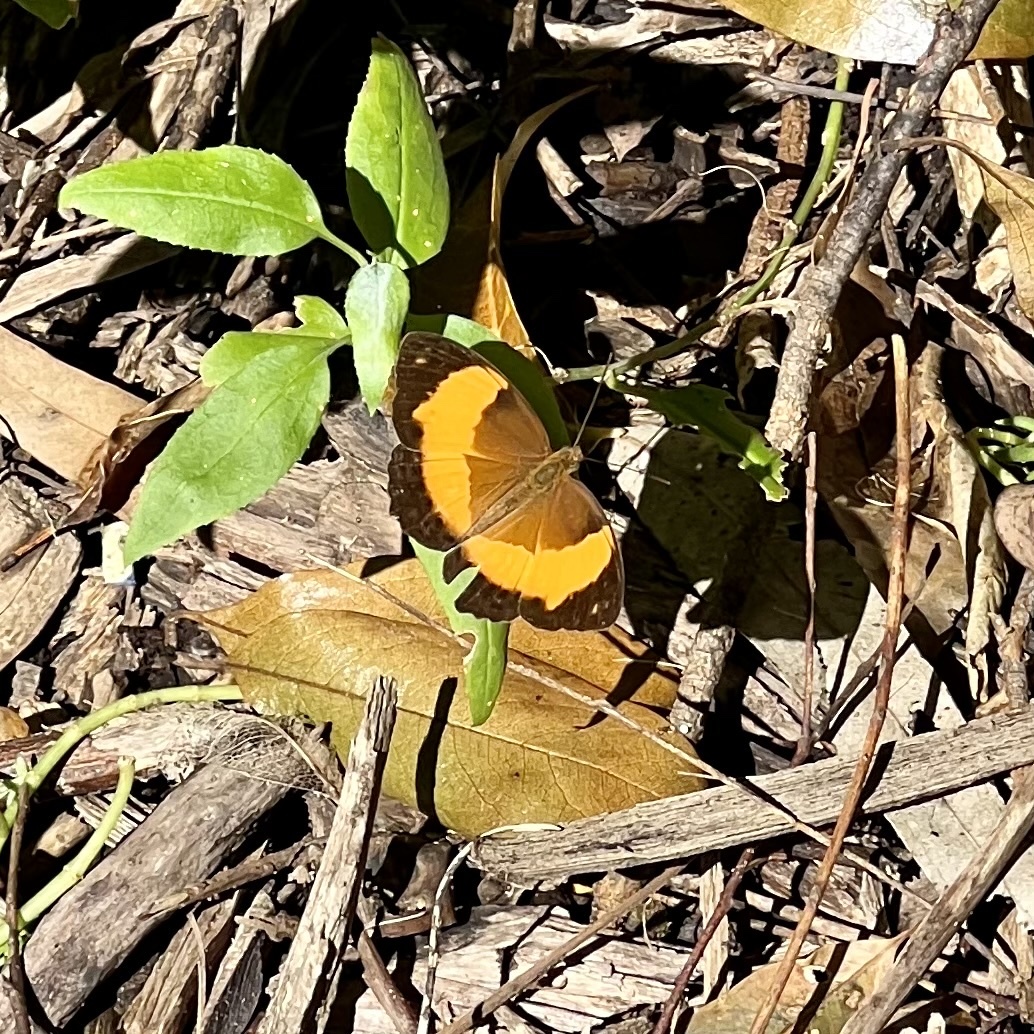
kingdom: Animalia
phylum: Arthropoda
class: Insecta
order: Lepidoptera
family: Nymphalidae
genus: Cupha
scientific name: Cupha prosope
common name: Bordered rustic
